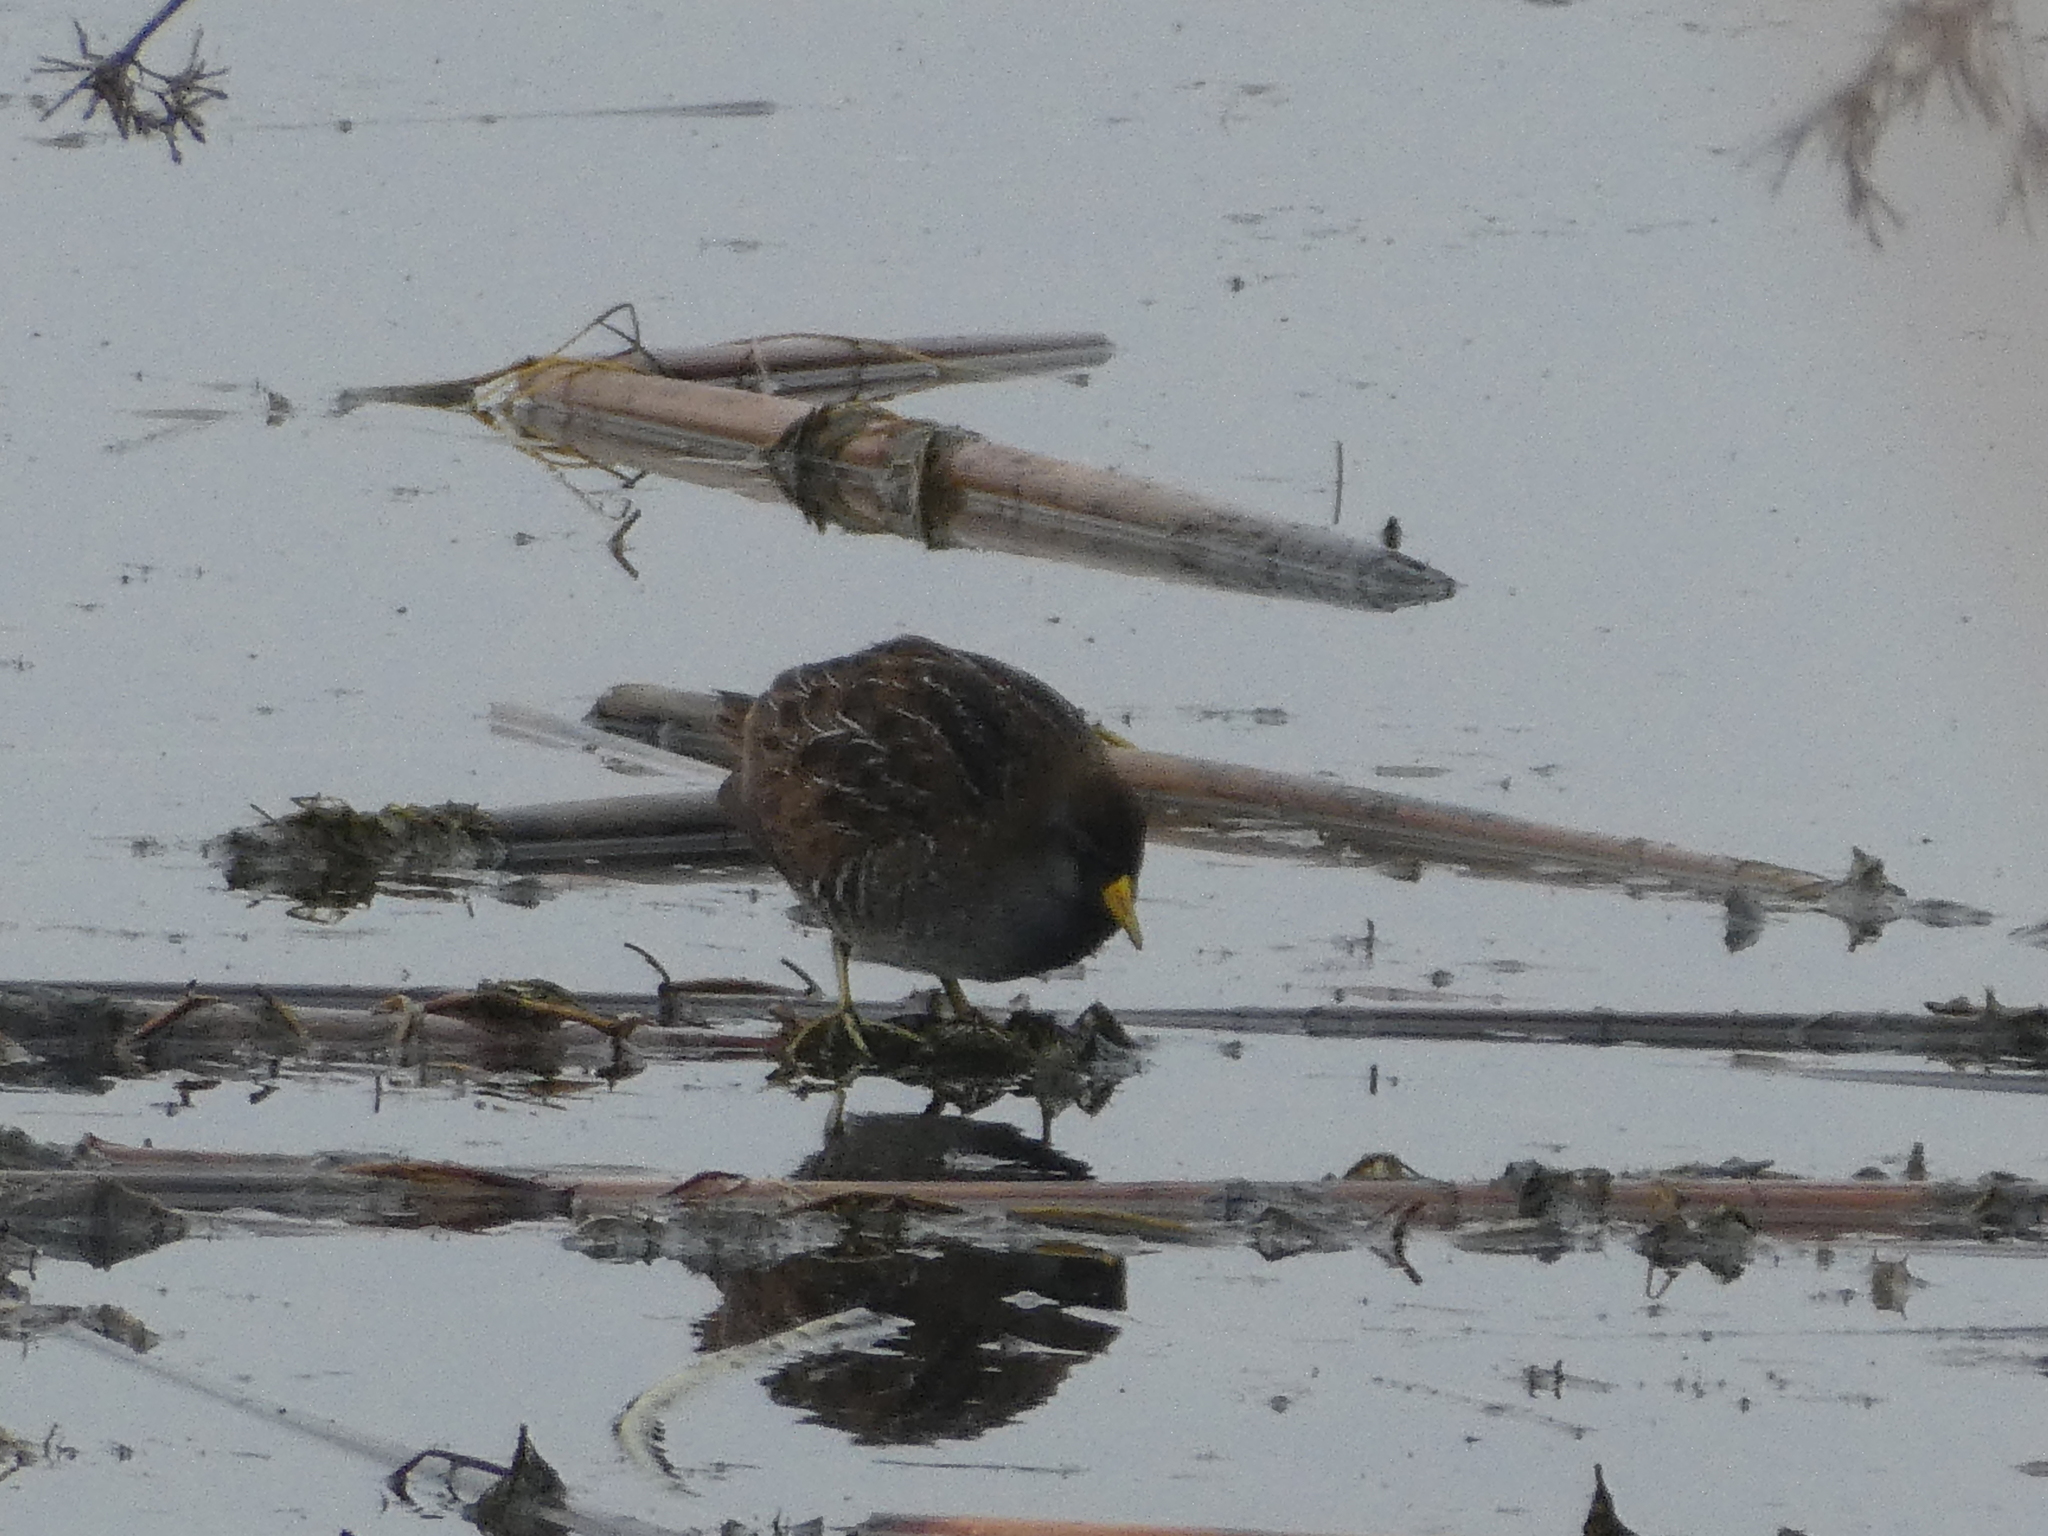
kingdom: Animalia
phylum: Chordata
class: Aves
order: Gruiformes
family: Rallidae
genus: Porzana
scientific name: Porzana carolina
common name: Sora
